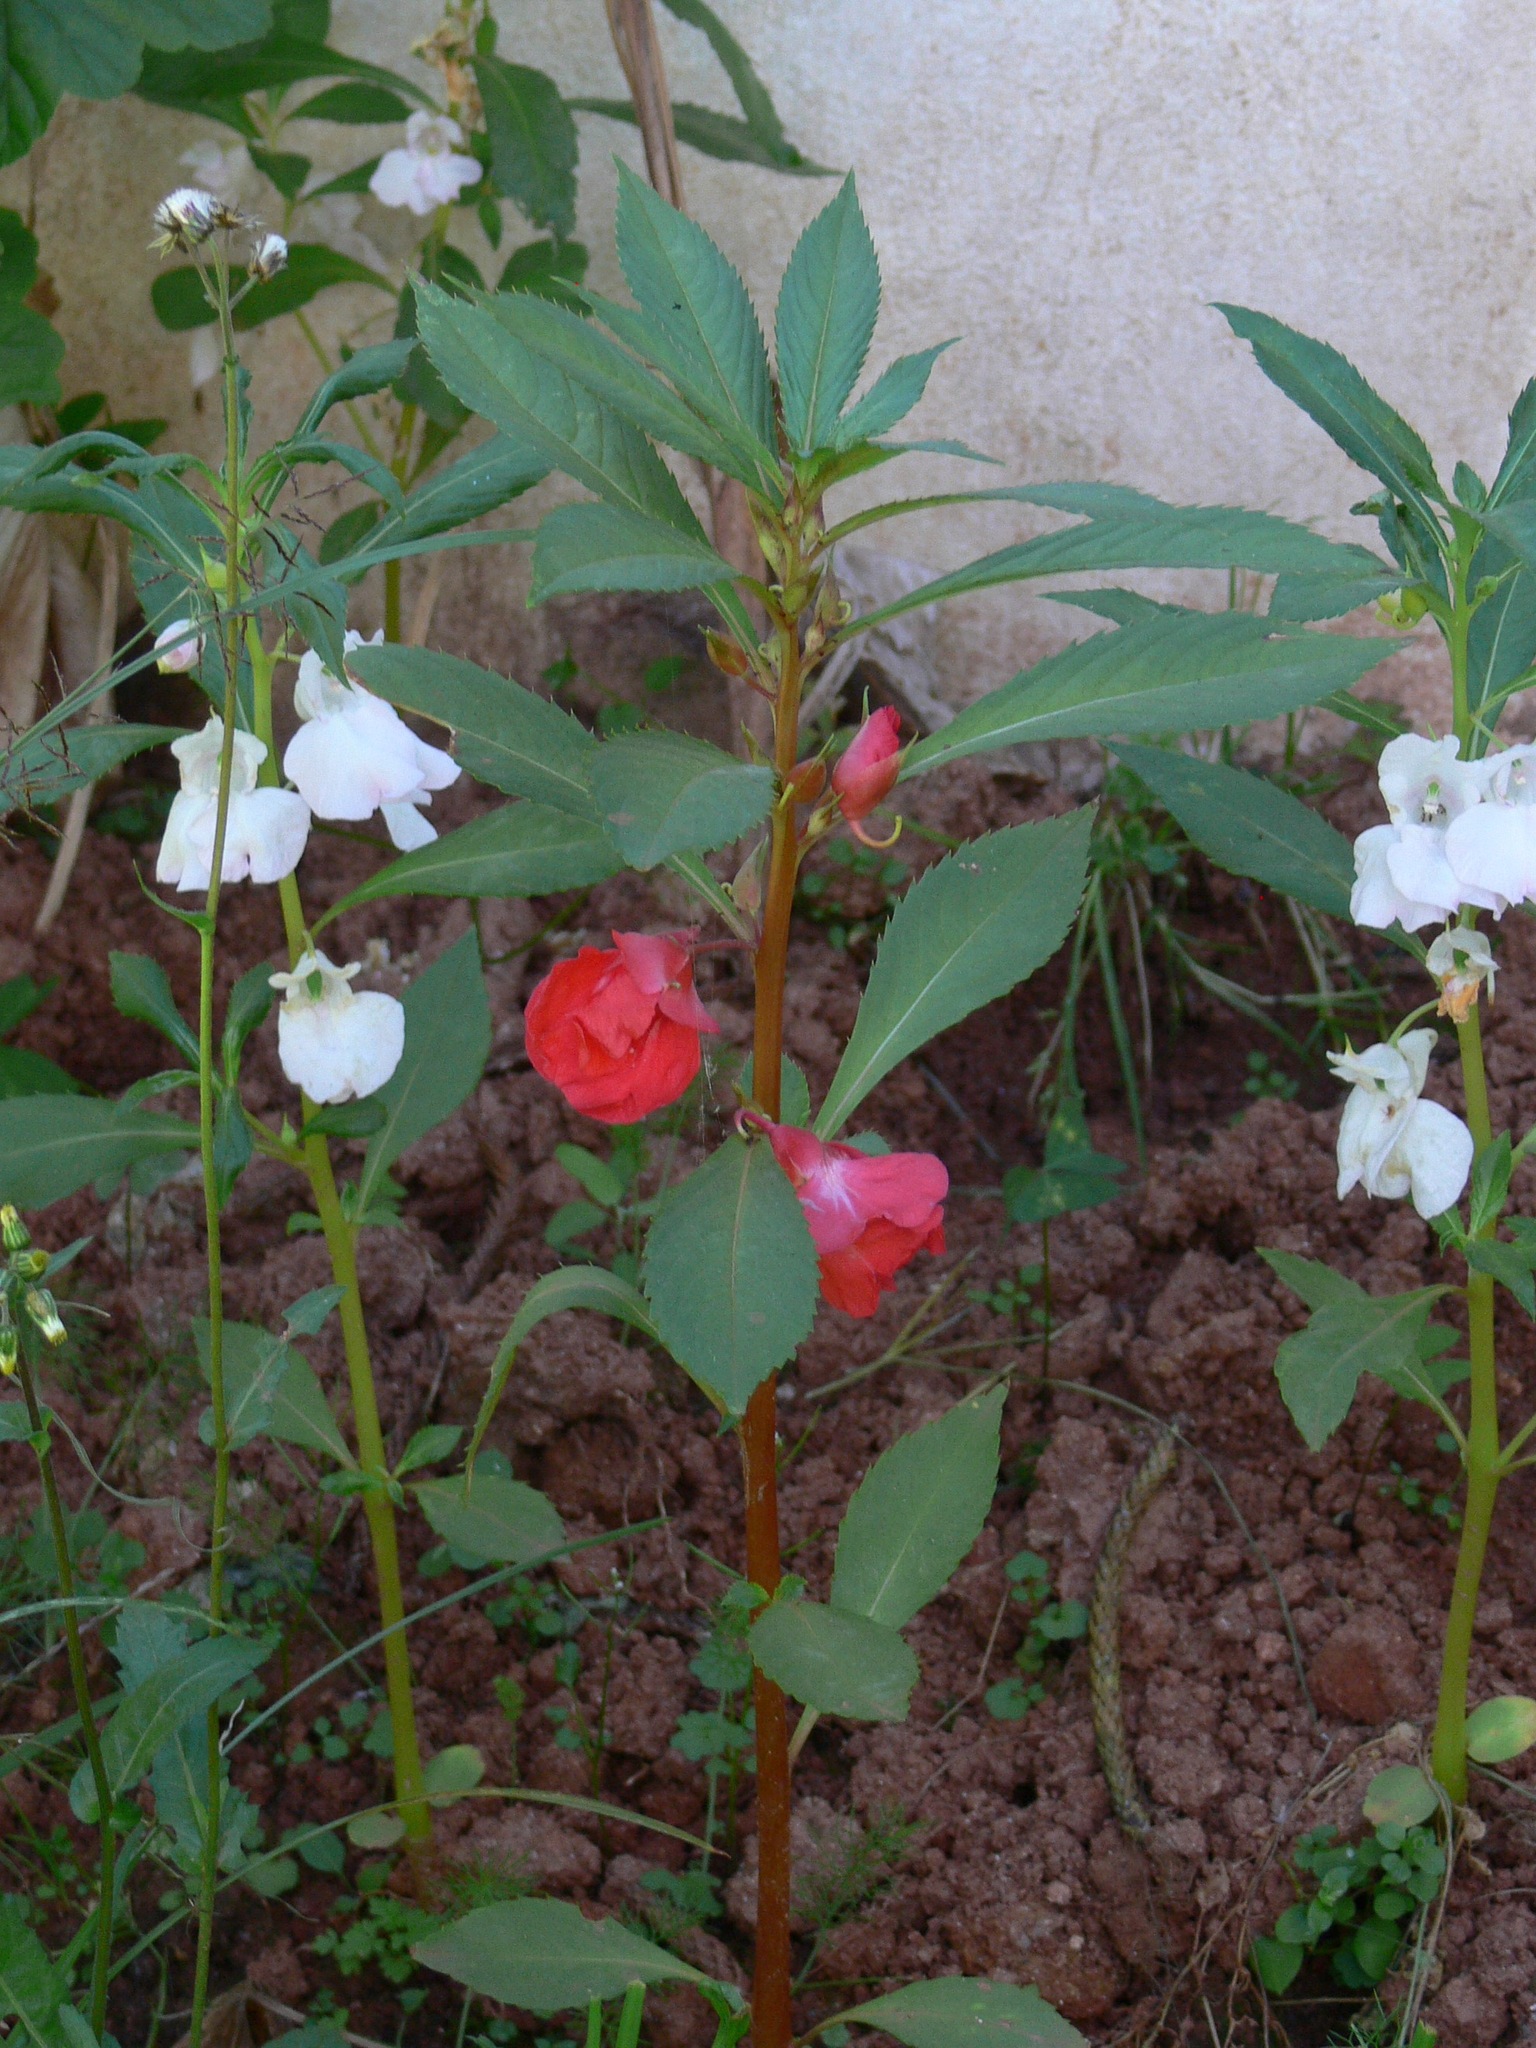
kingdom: Plantae
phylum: Tracheophyta
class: Magnoliopsida
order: Ericales
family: Balsaminaceae
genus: Impatiens
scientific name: Impatiens balsamina
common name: Balsam
